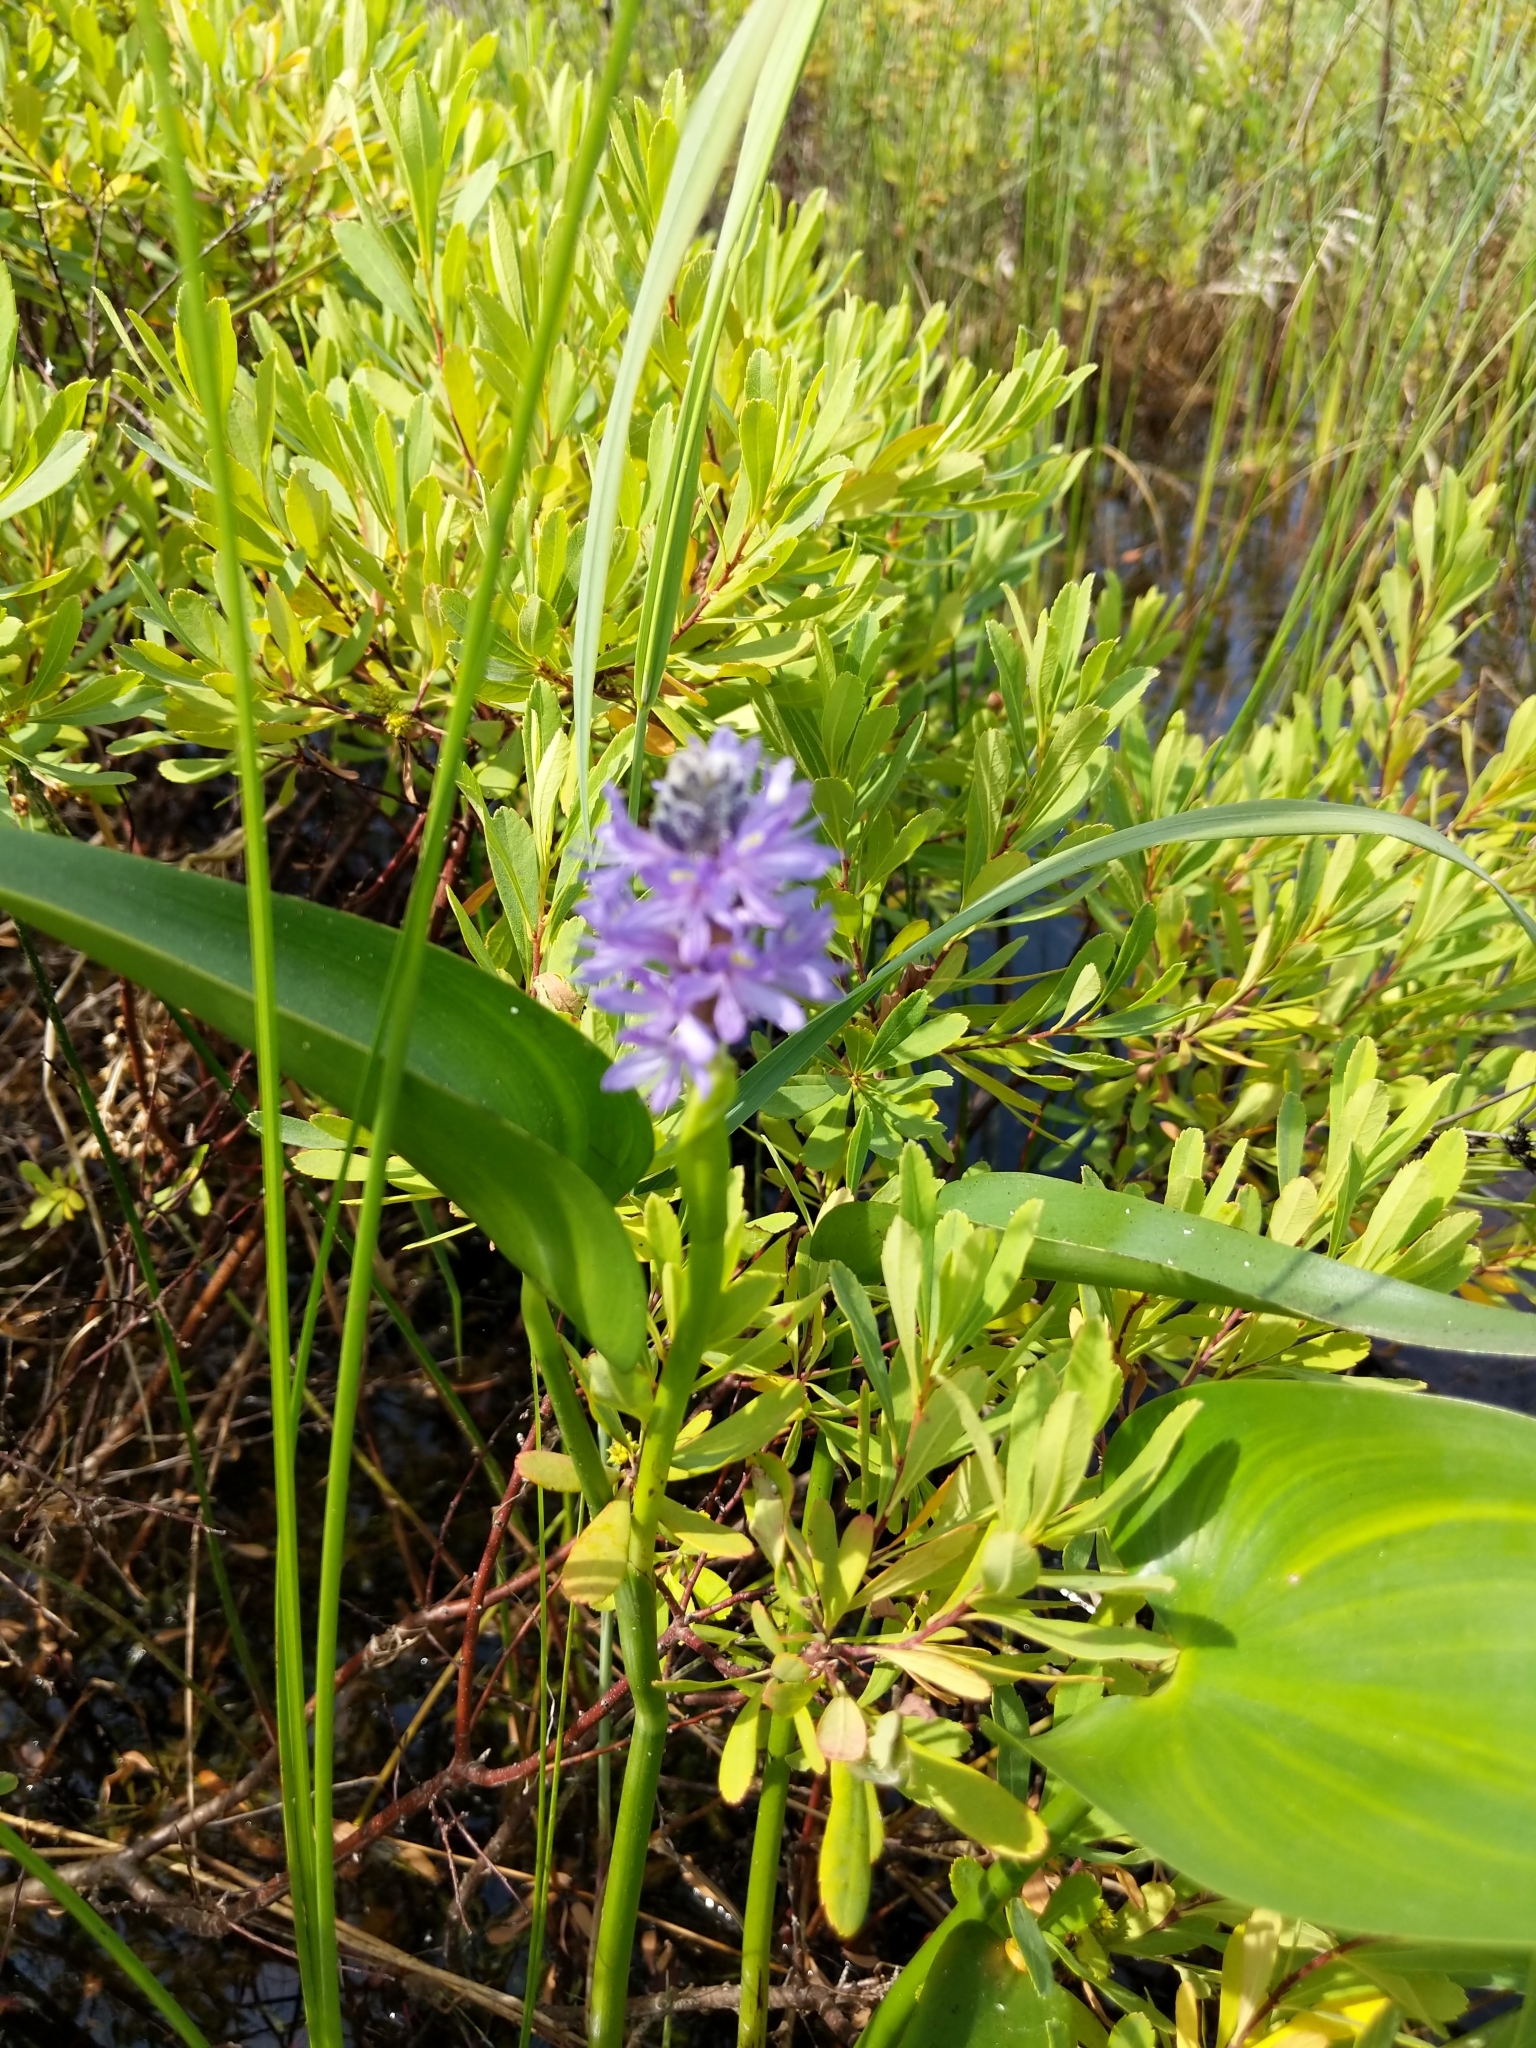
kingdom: Plantae
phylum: Tracheophyta
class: Liliopsida
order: Commelinales
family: Pontederiaceae
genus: Pontederia
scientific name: Pontederia cordata
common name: Pickerelweed
